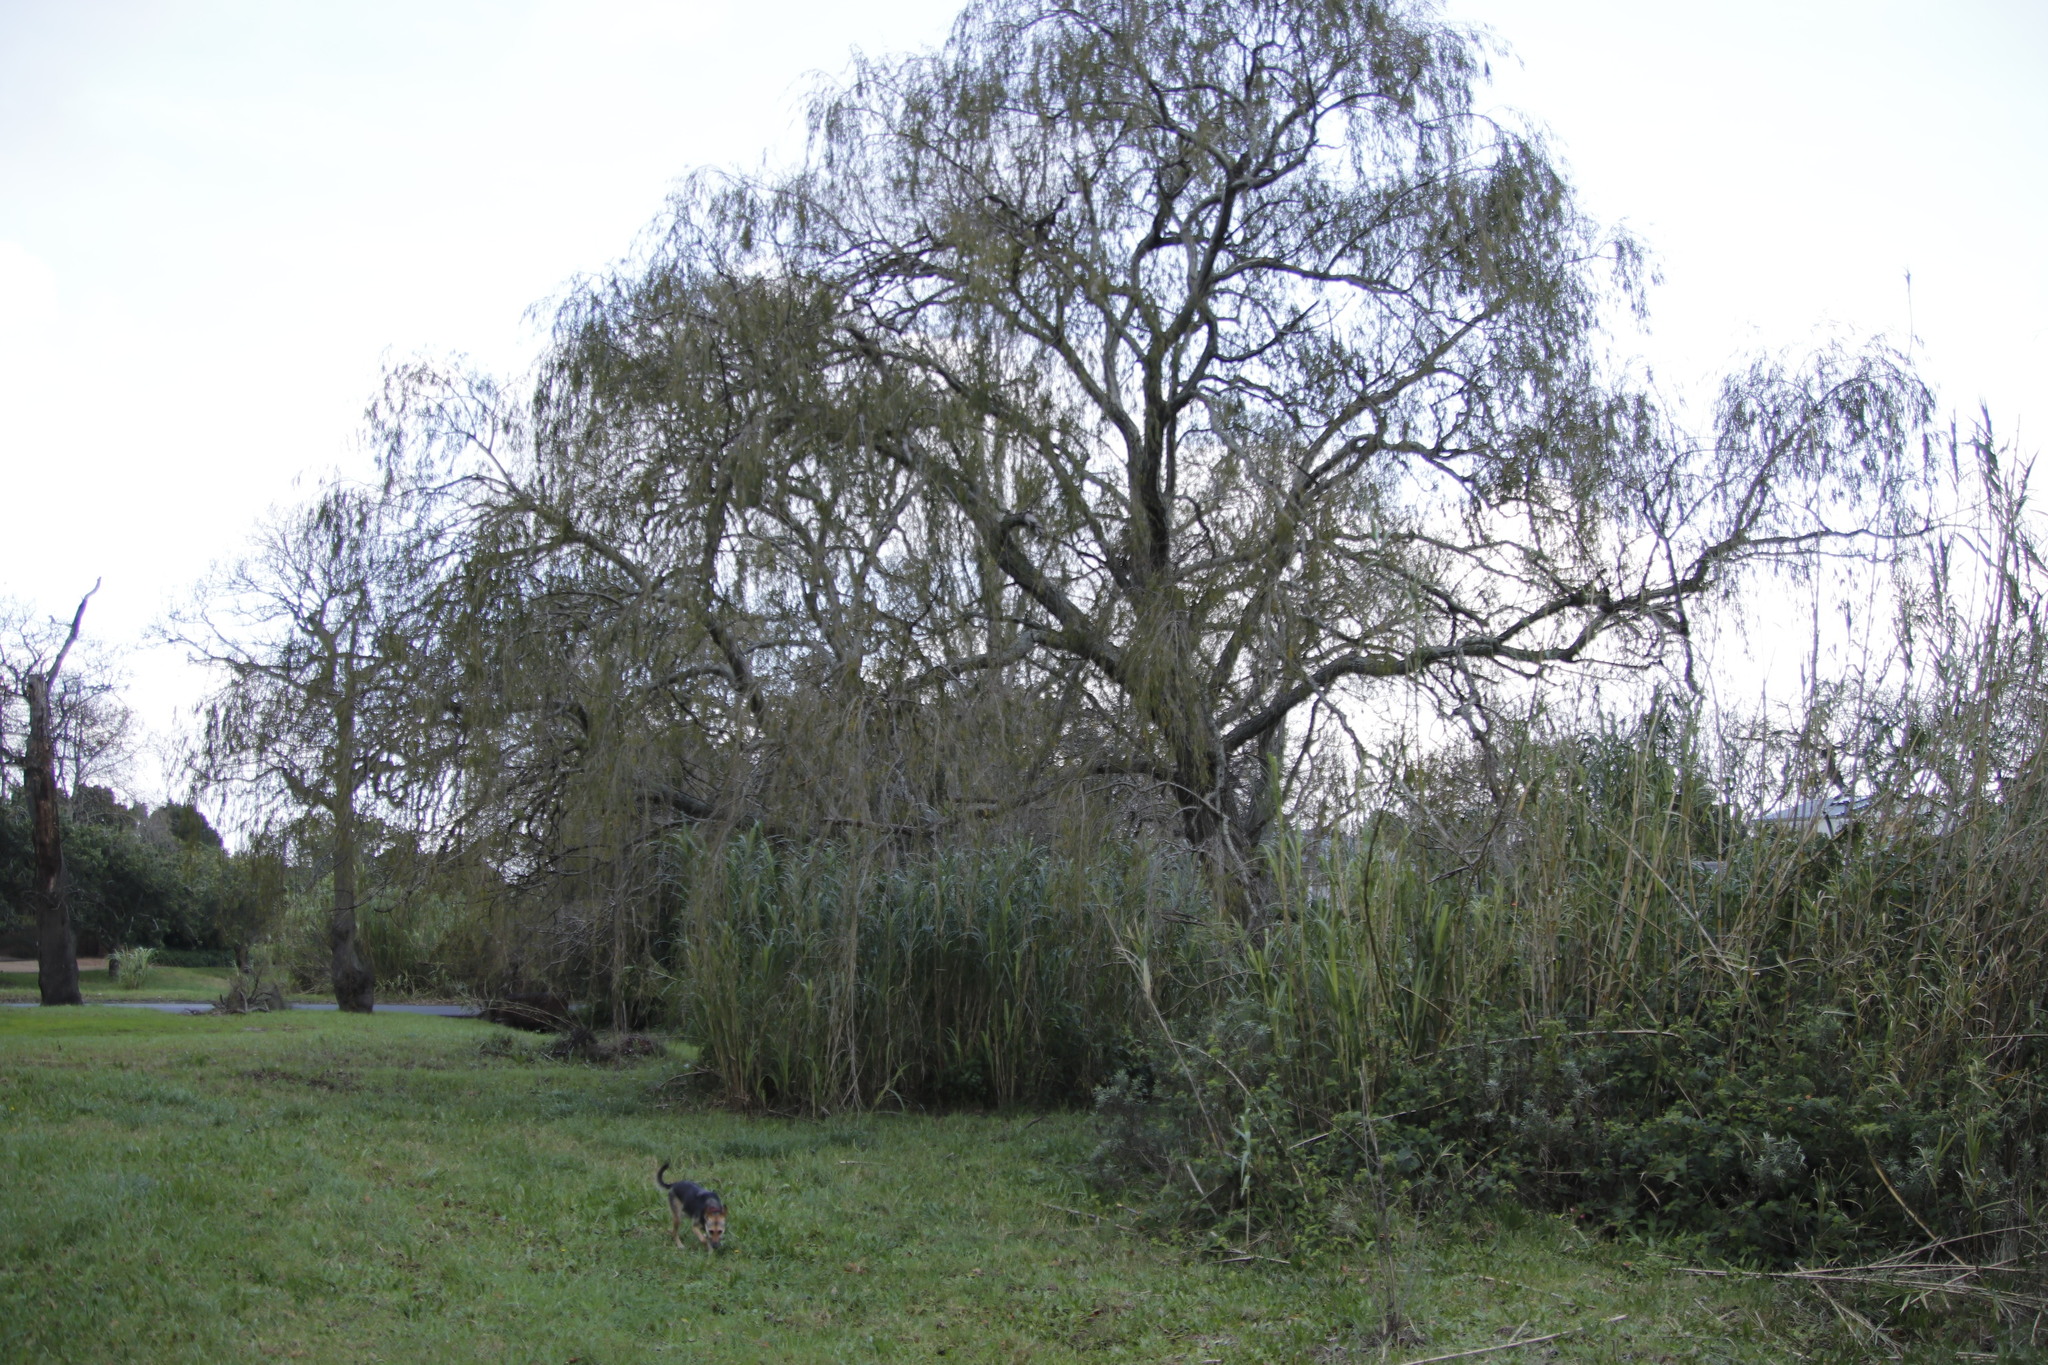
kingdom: Plantae
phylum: Tracheophyta
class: Magnoliopsida
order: Malpighiales
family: Salicaceae
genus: Salix
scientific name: Salix babylonica
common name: Weeping willow
